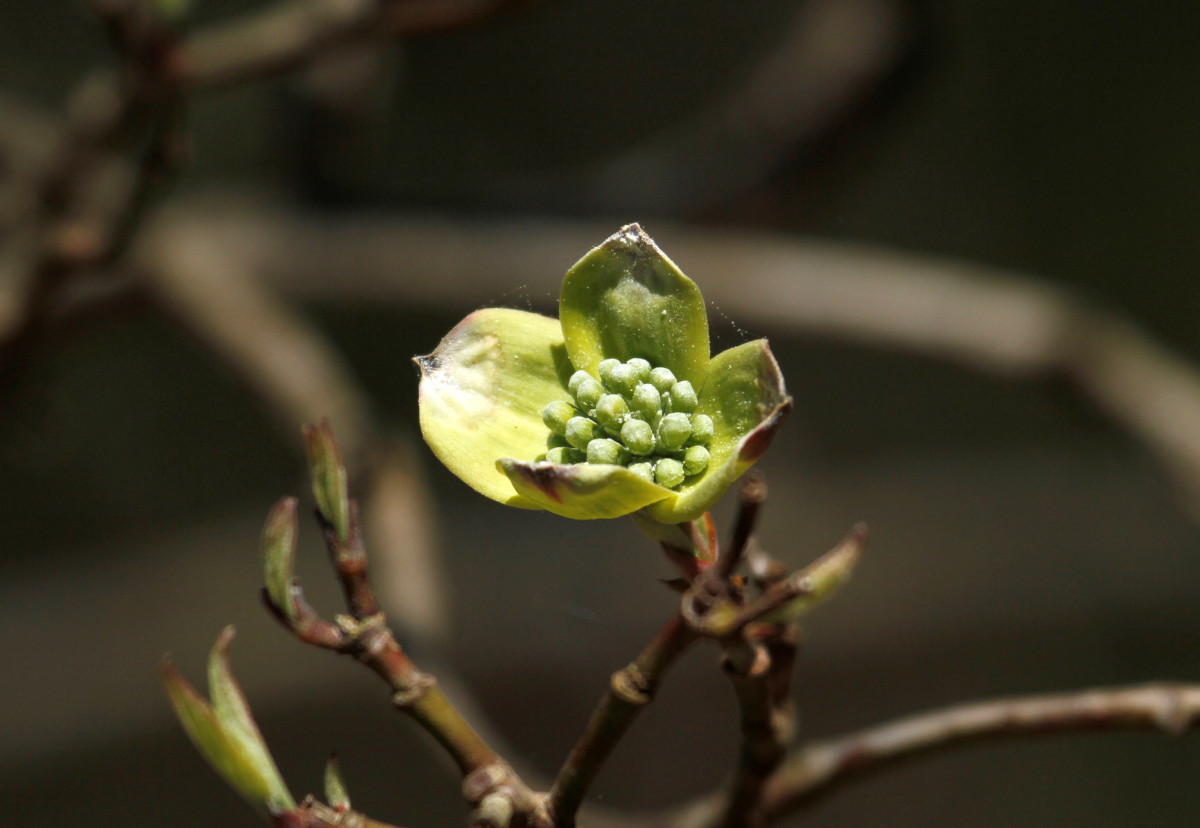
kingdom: Plantae
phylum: Tracheophyta
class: Magnoliopsida
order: Cornales
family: Cornaceae
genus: Cornus
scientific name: Cornus florida
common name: Flowering dogwood
